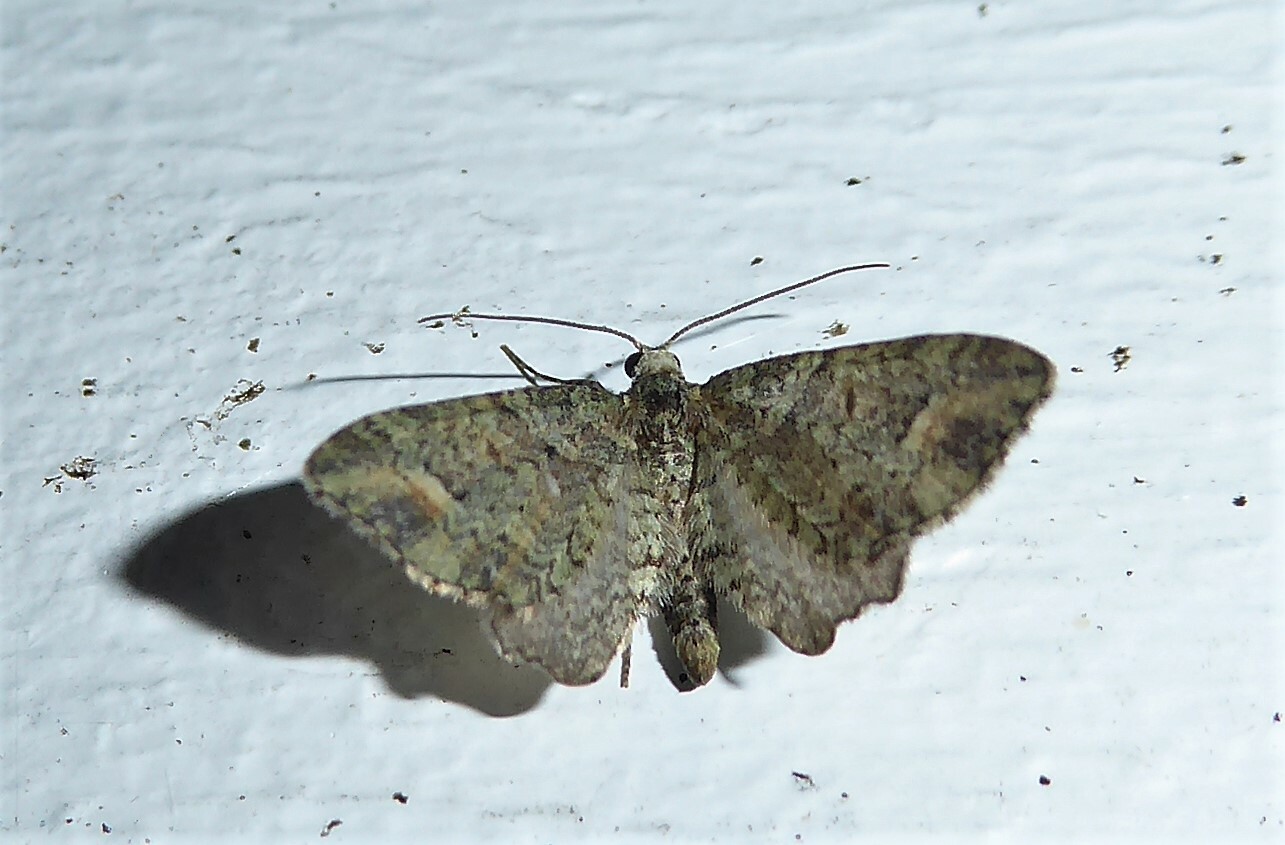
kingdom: Animalia
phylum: Arthropoda
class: Insecta
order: Lepidoptera
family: Geometridae
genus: Idaea
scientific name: Idaea mutanda
